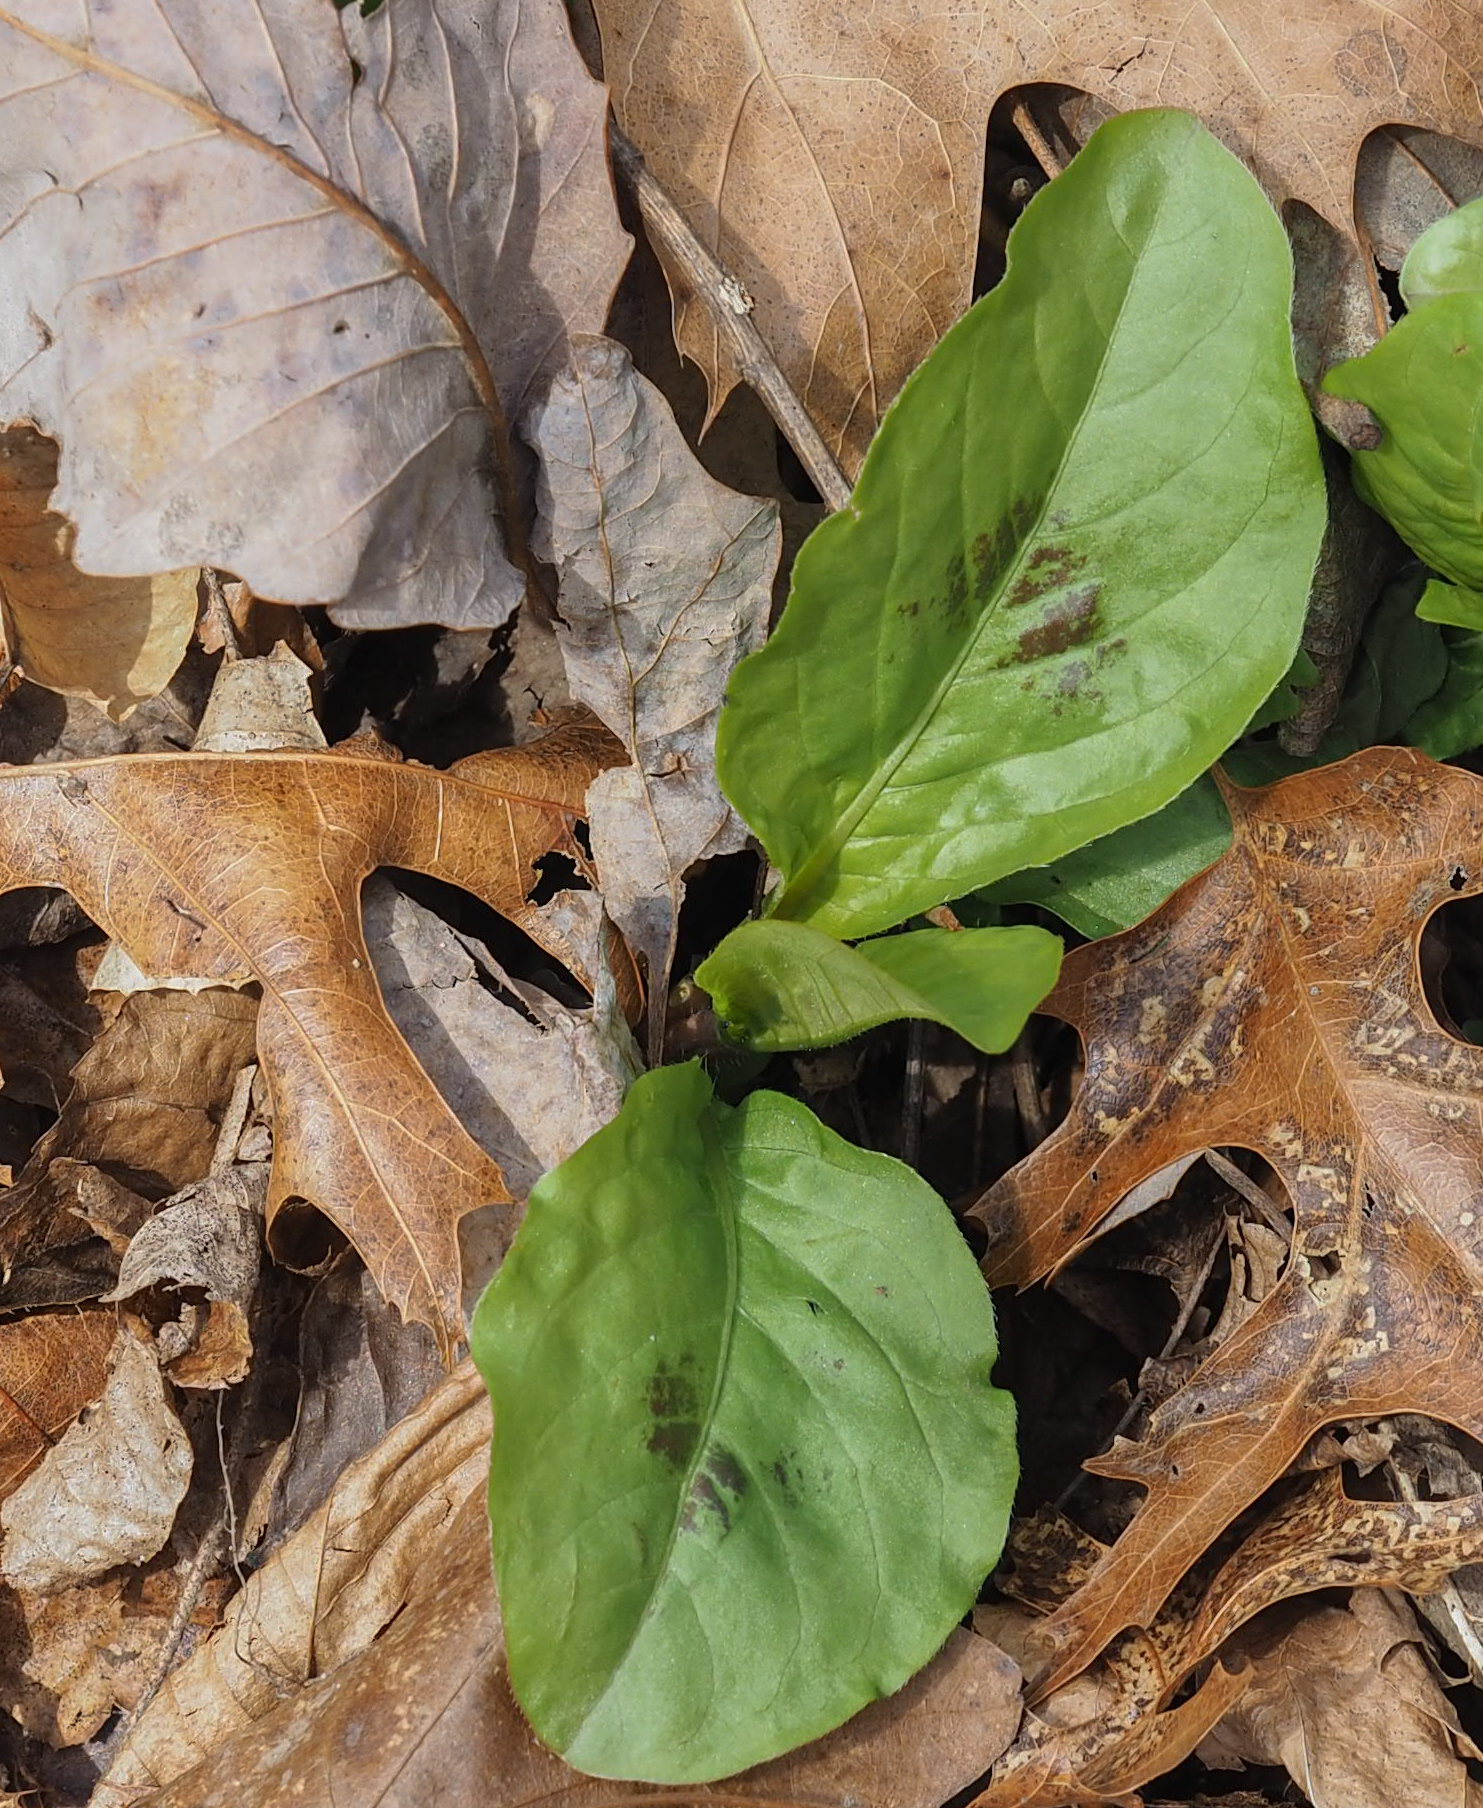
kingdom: Plantae
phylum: Tracheophyta
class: Magnoliopsida
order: Caryophyllales
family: Polygonaceae
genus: Persicaria
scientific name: Persicaria virginiana
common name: Jumpseed
